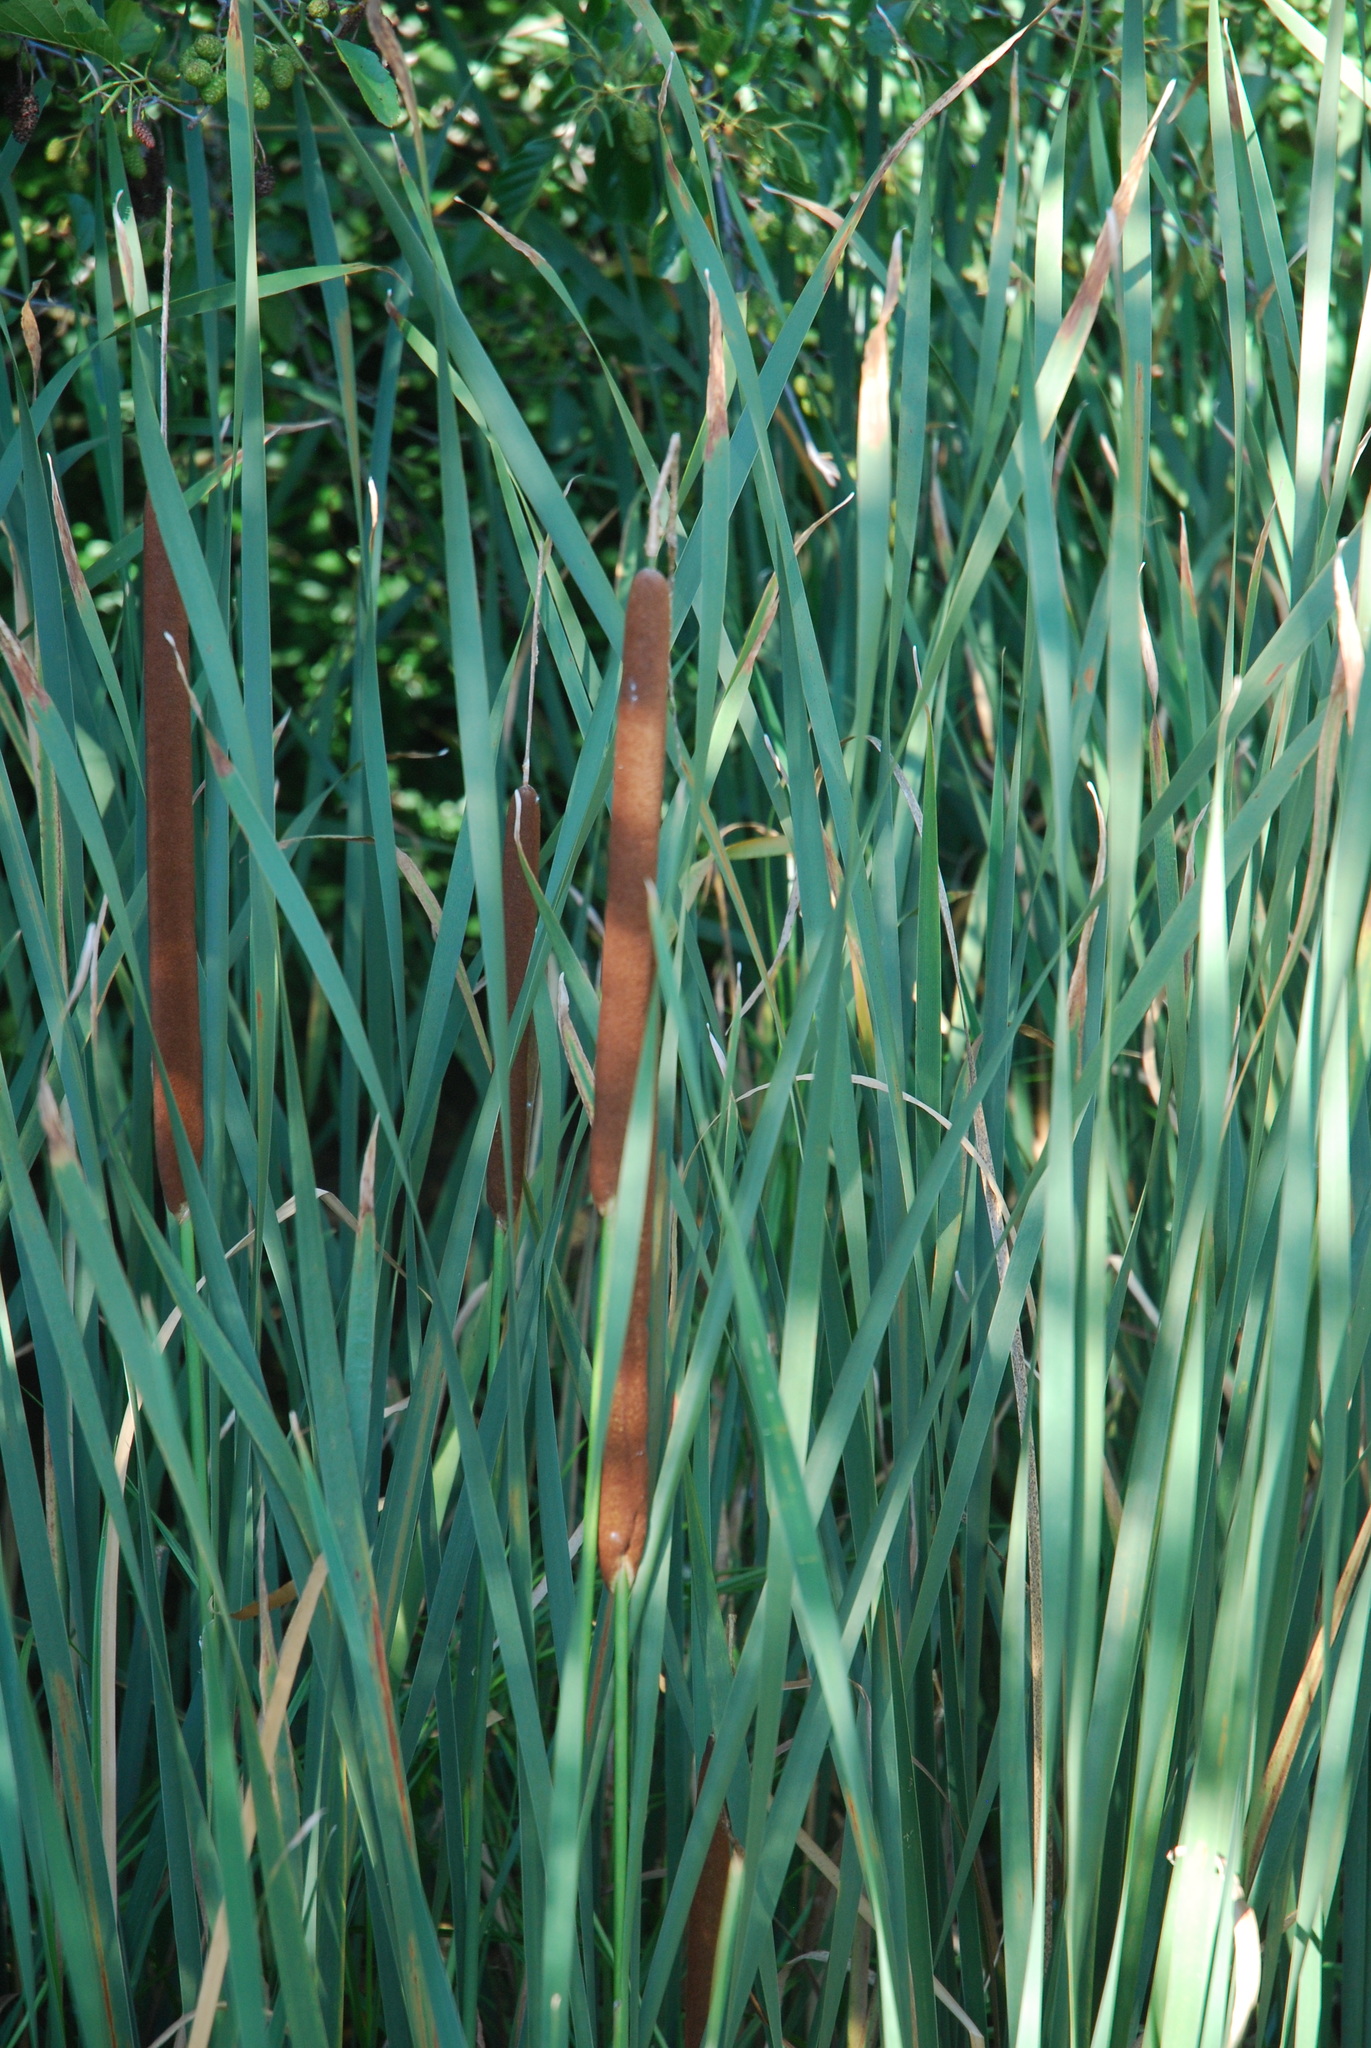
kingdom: Plantae
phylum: Tracheophyta
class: Liliopsida
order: Poales
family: Typhaceae
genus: Typha
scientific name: Typha angustifolia
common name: Lesser bulrush
